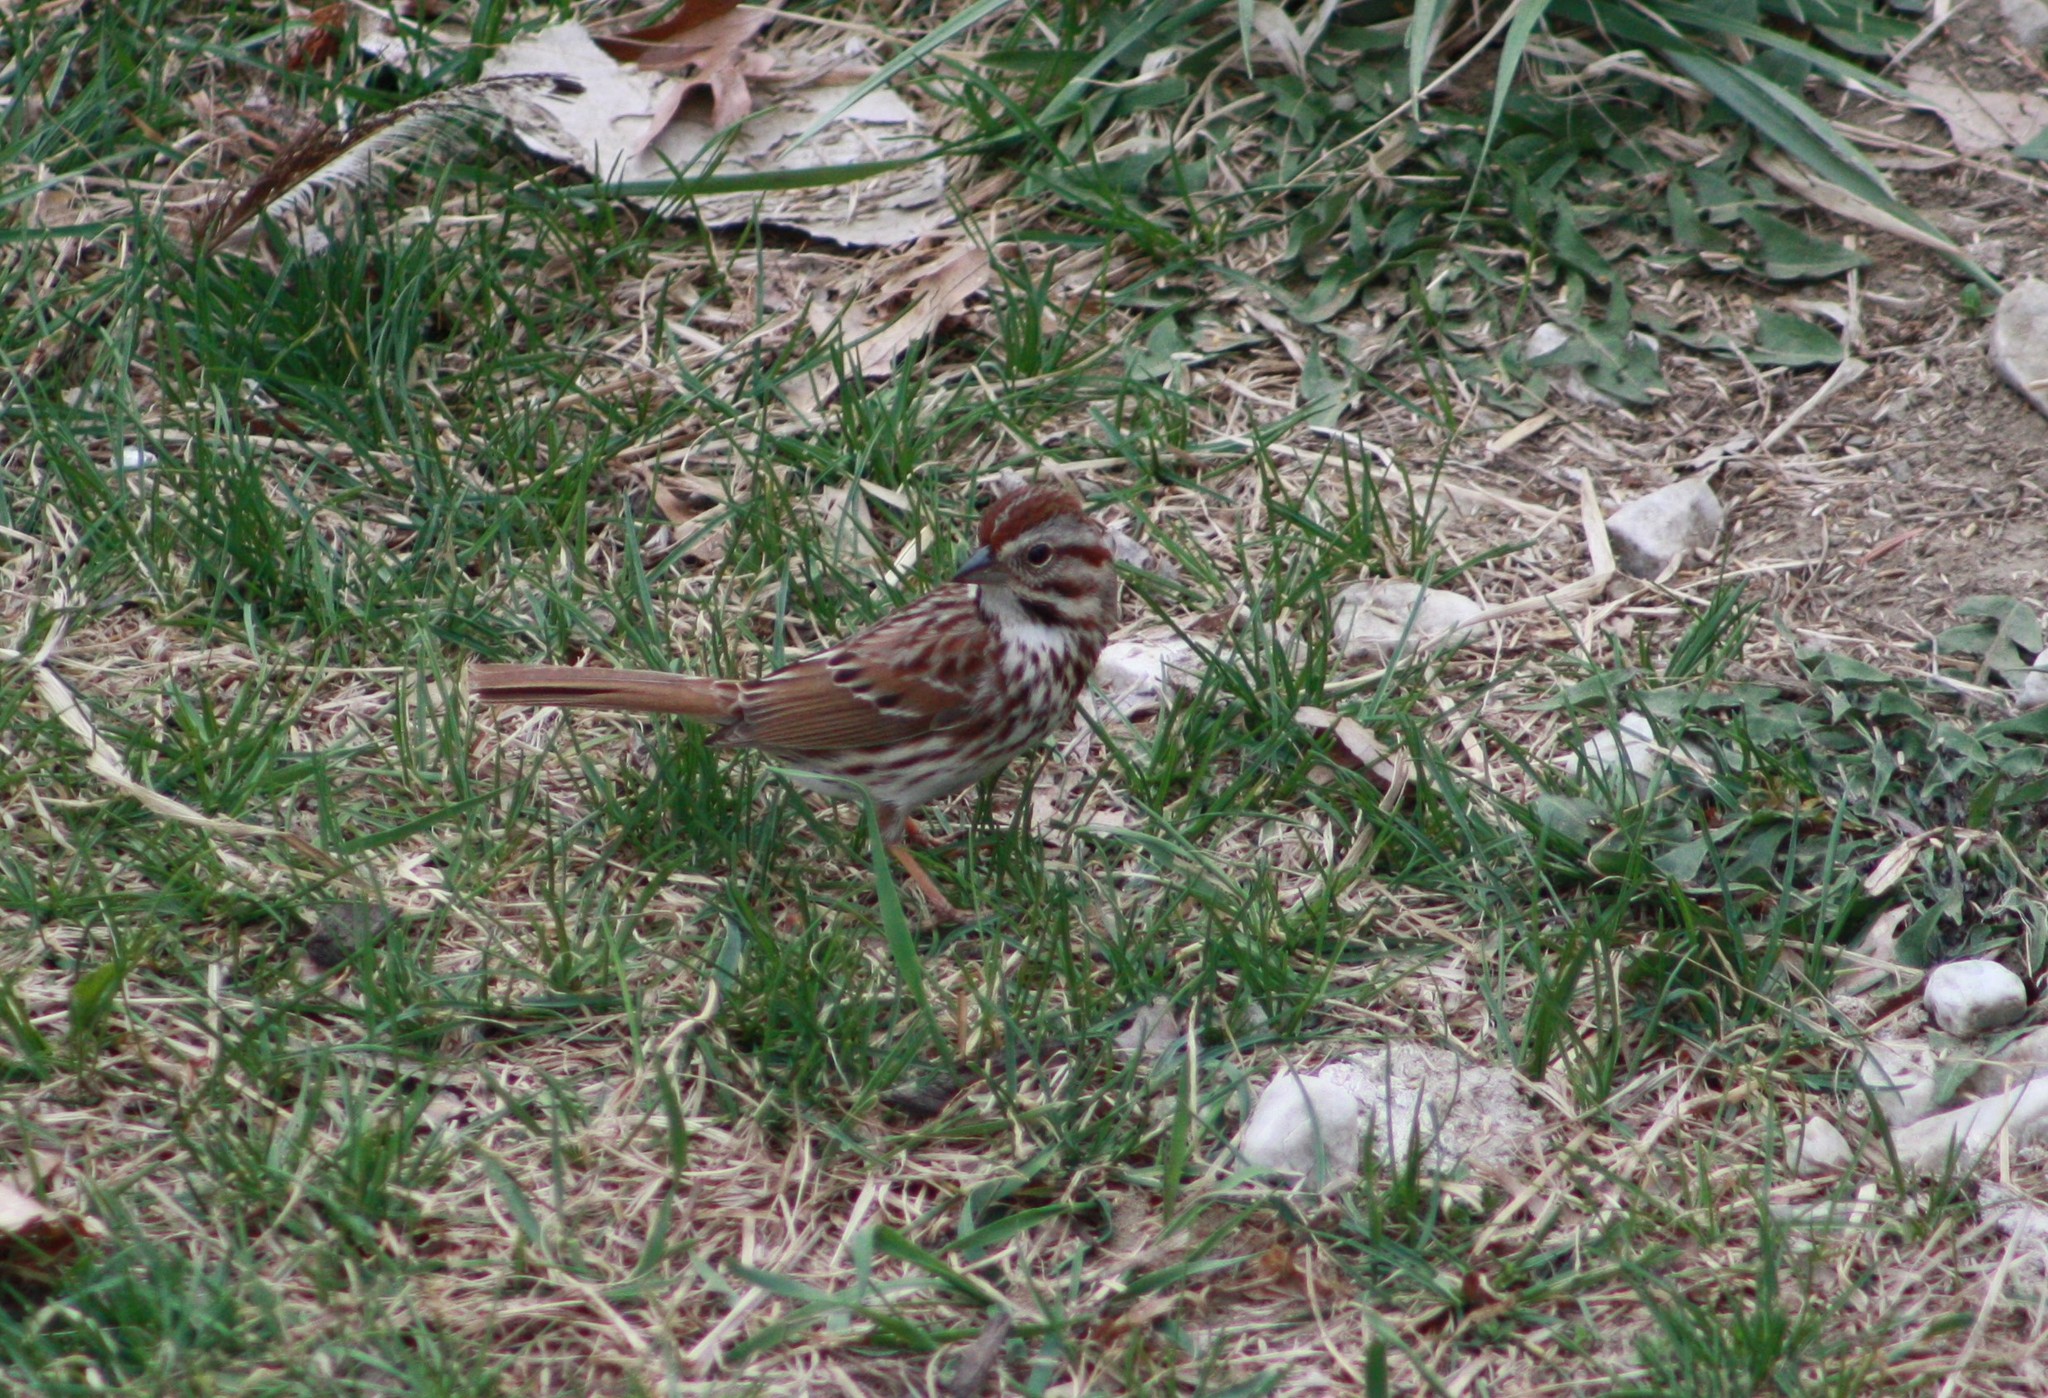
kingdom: Animalia
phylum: Chordata
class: Aves
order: Passeriformes
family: Passerellidae
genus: Melospiza
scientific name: Melospiza melodia
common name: Song sparrow
